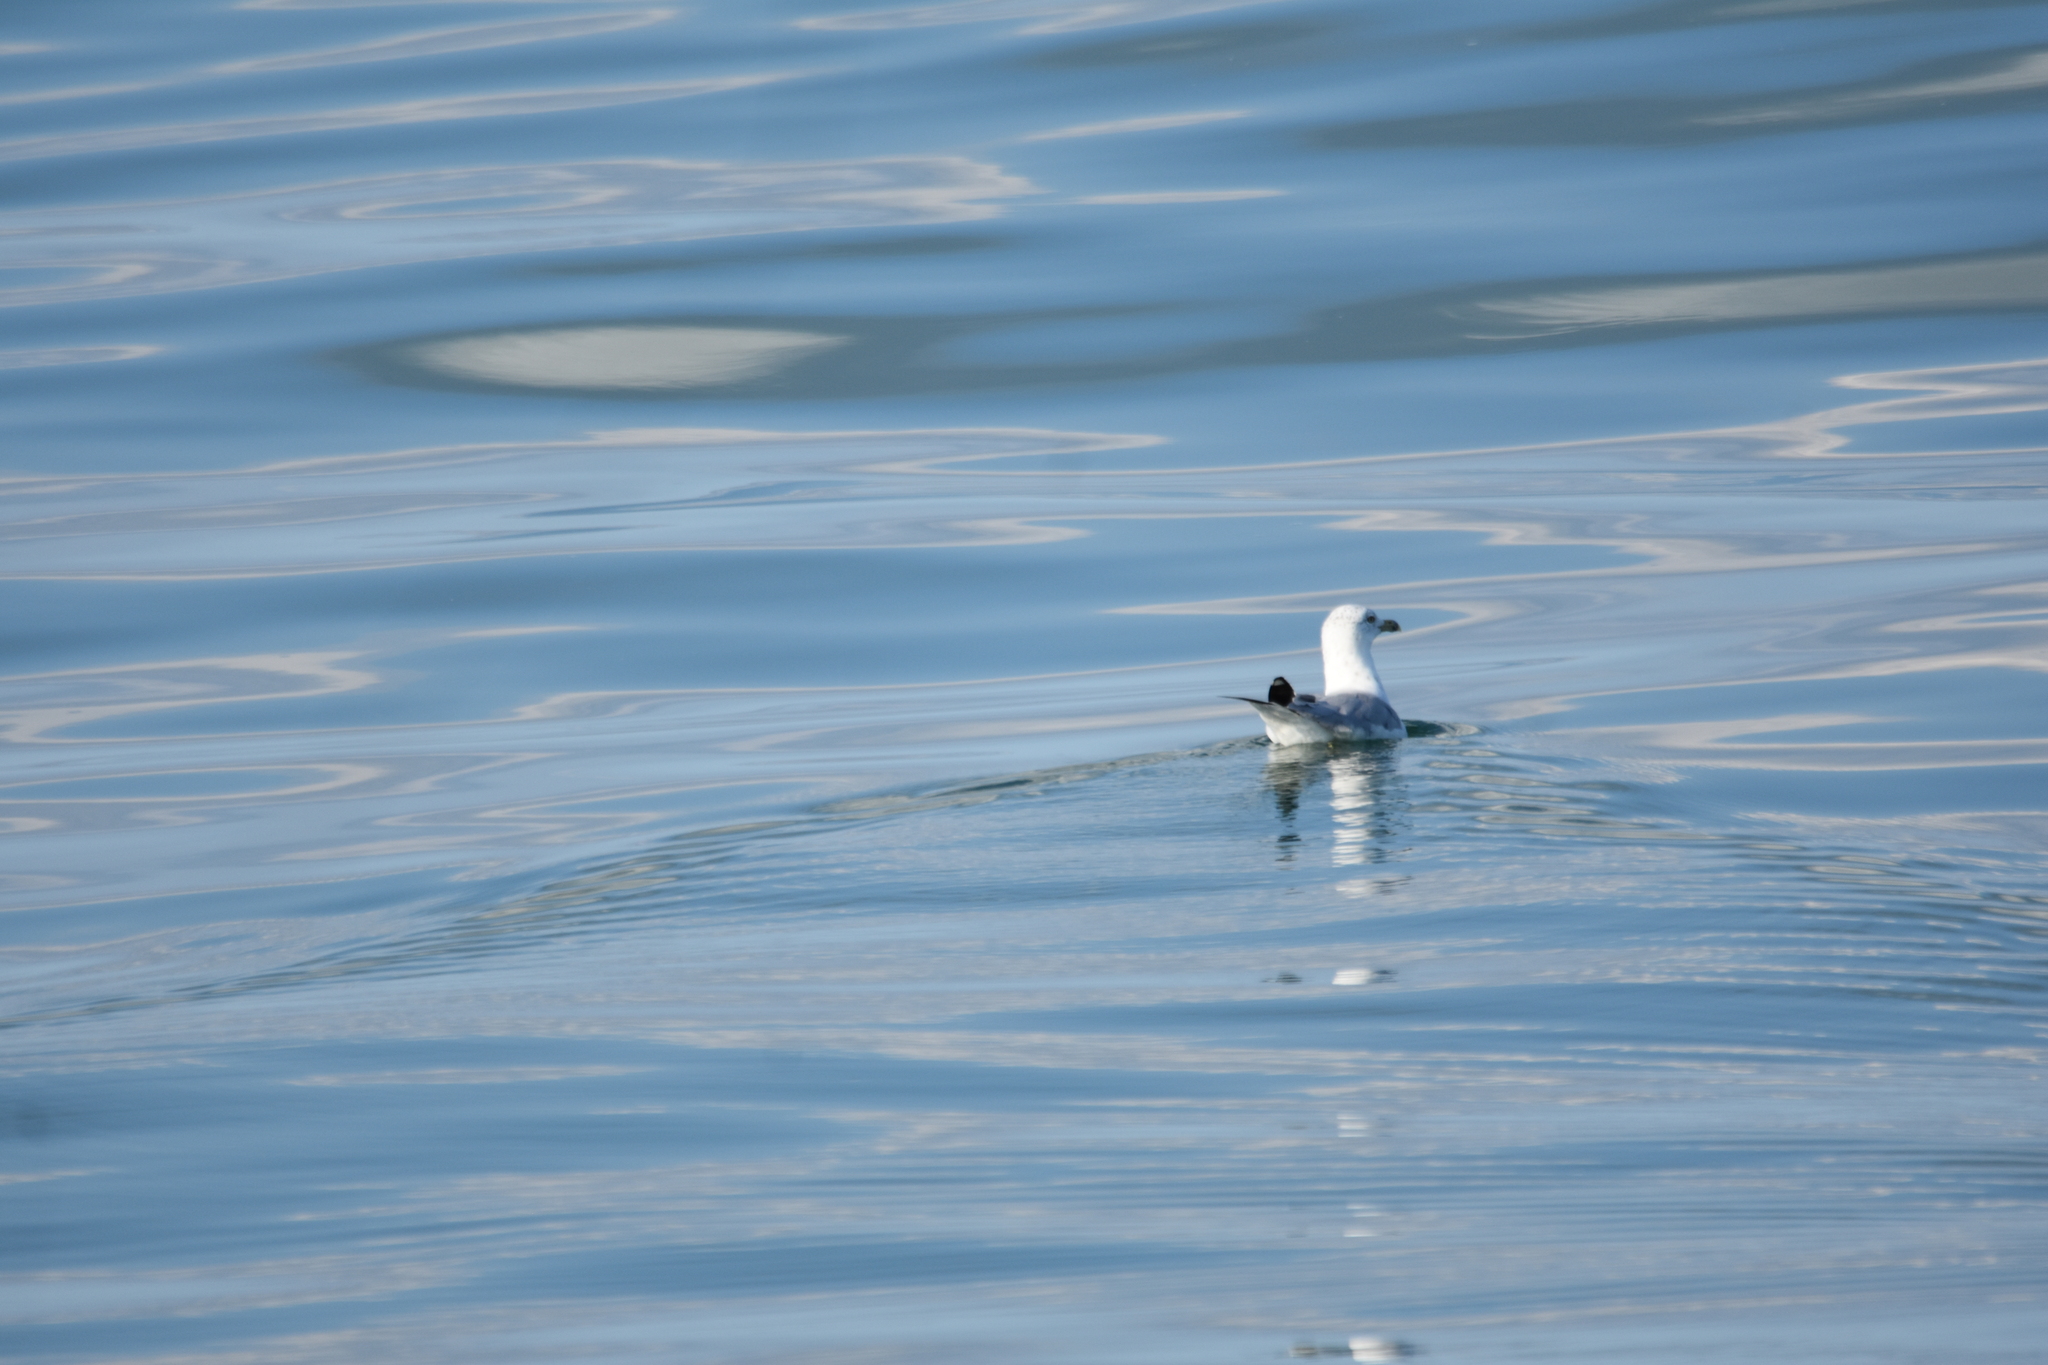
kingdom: Animalia
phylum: Chordata
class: Aves
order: Charadriiformes
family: Laridae
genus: Larus
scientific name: Larus argentatus
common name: Herring gull
